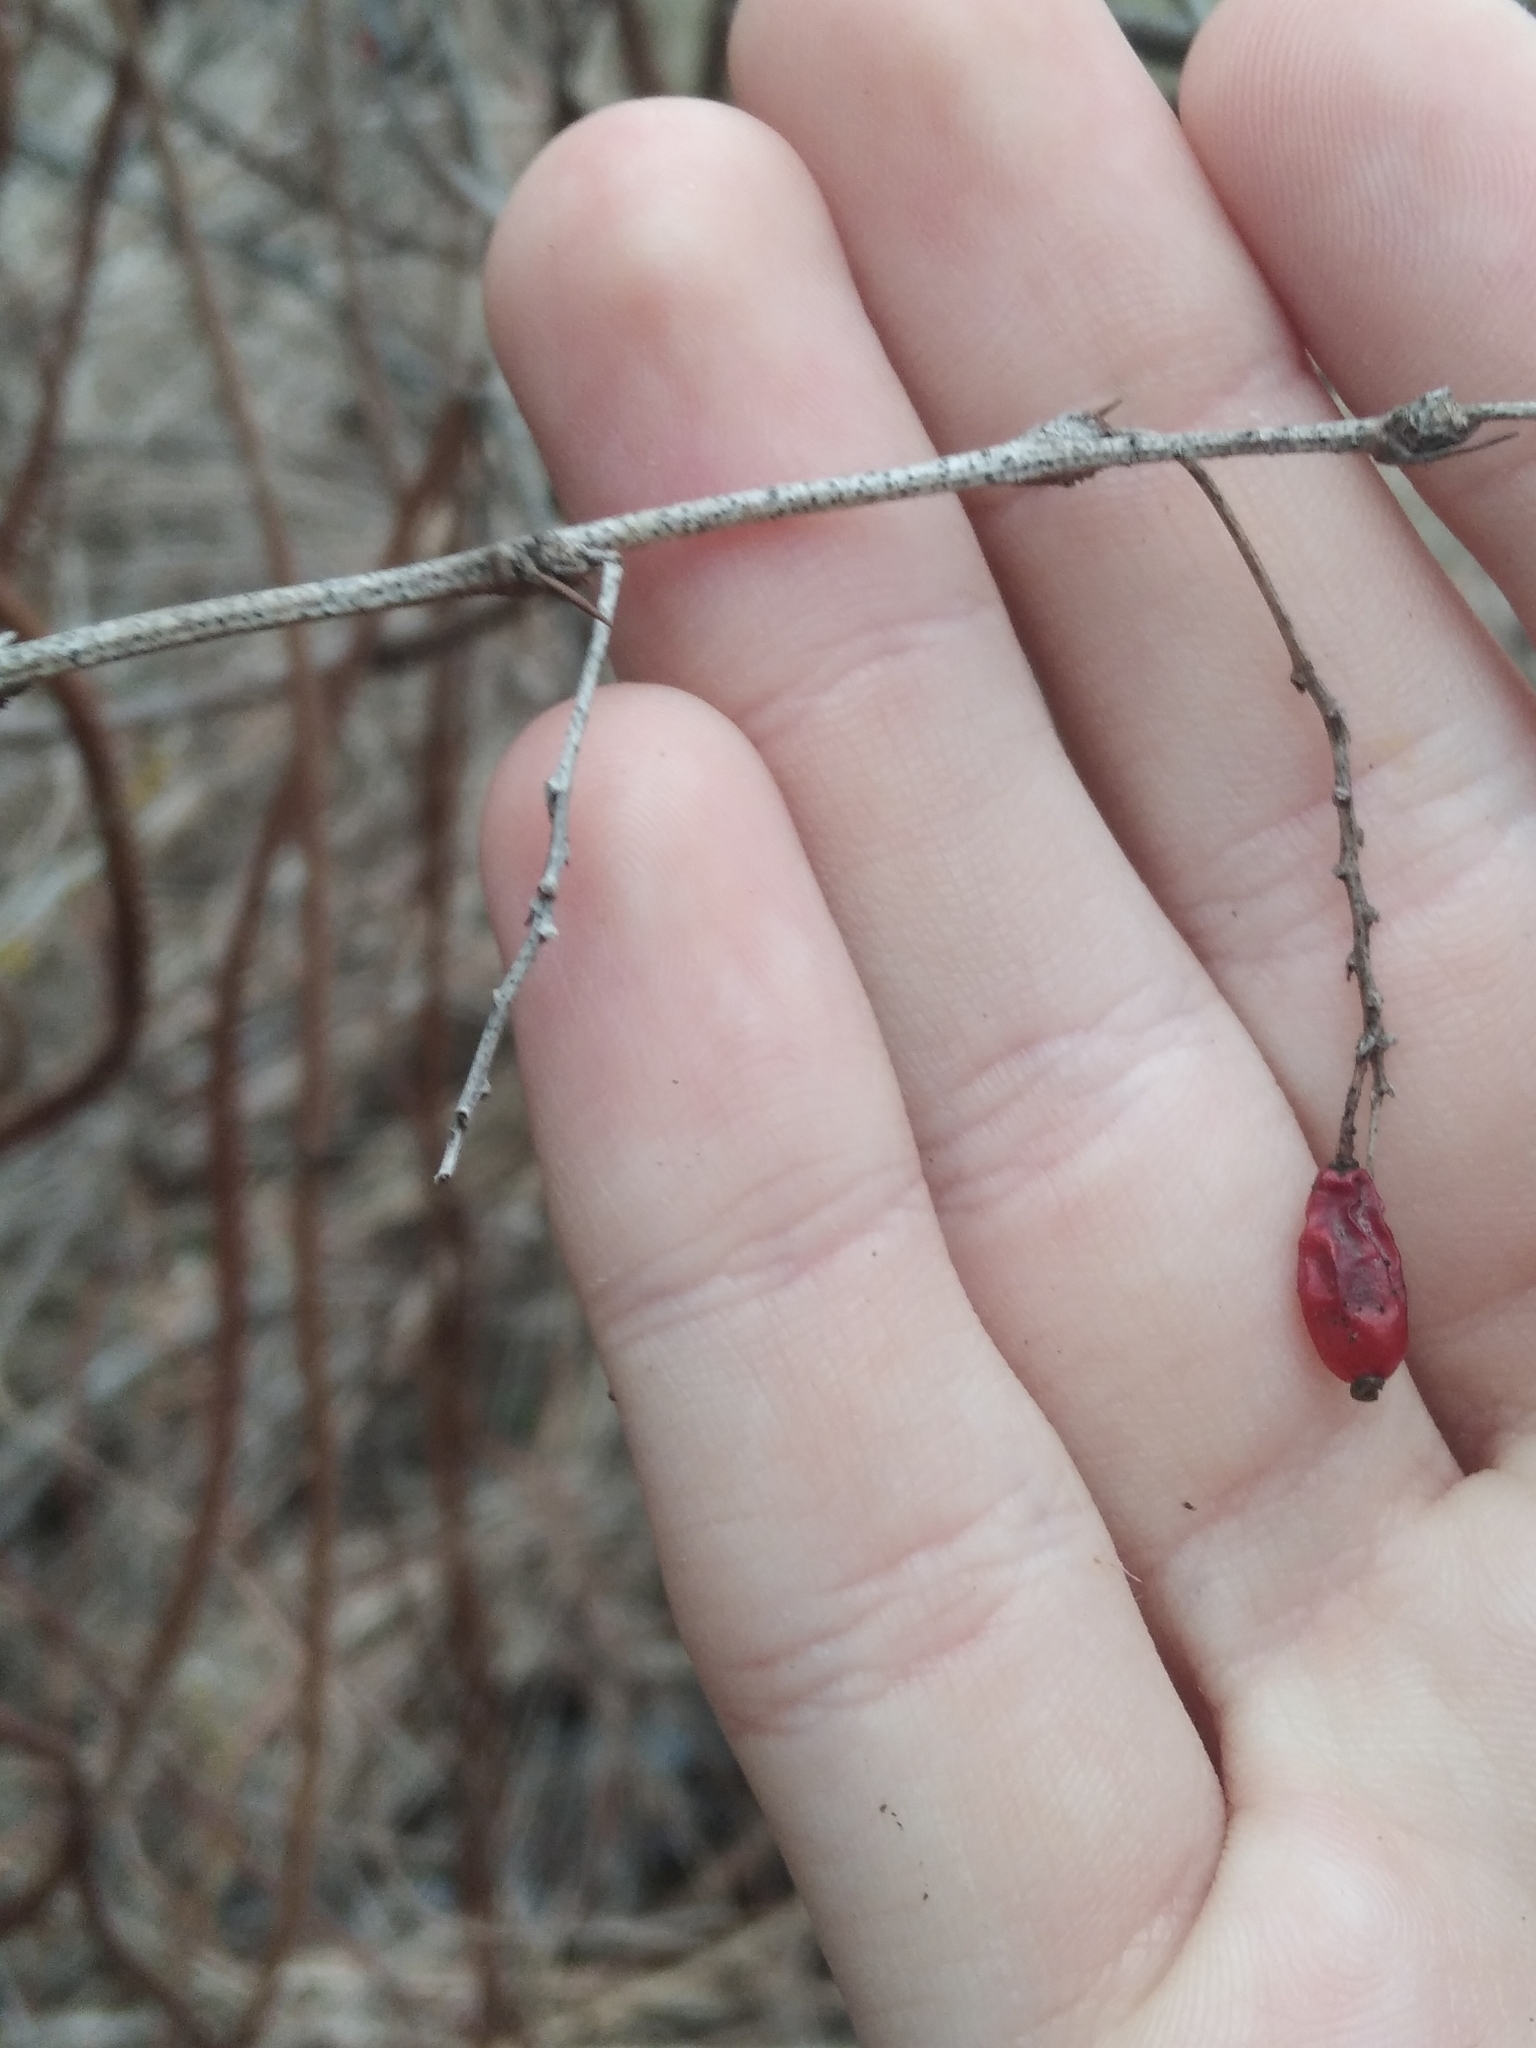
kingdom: Plantae
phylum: Tracheophyta
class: Magnoliopsida
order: Ranunculales
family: Berberidaceae
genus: Berberis
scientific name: Berberis vulgaris
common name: Barberry
